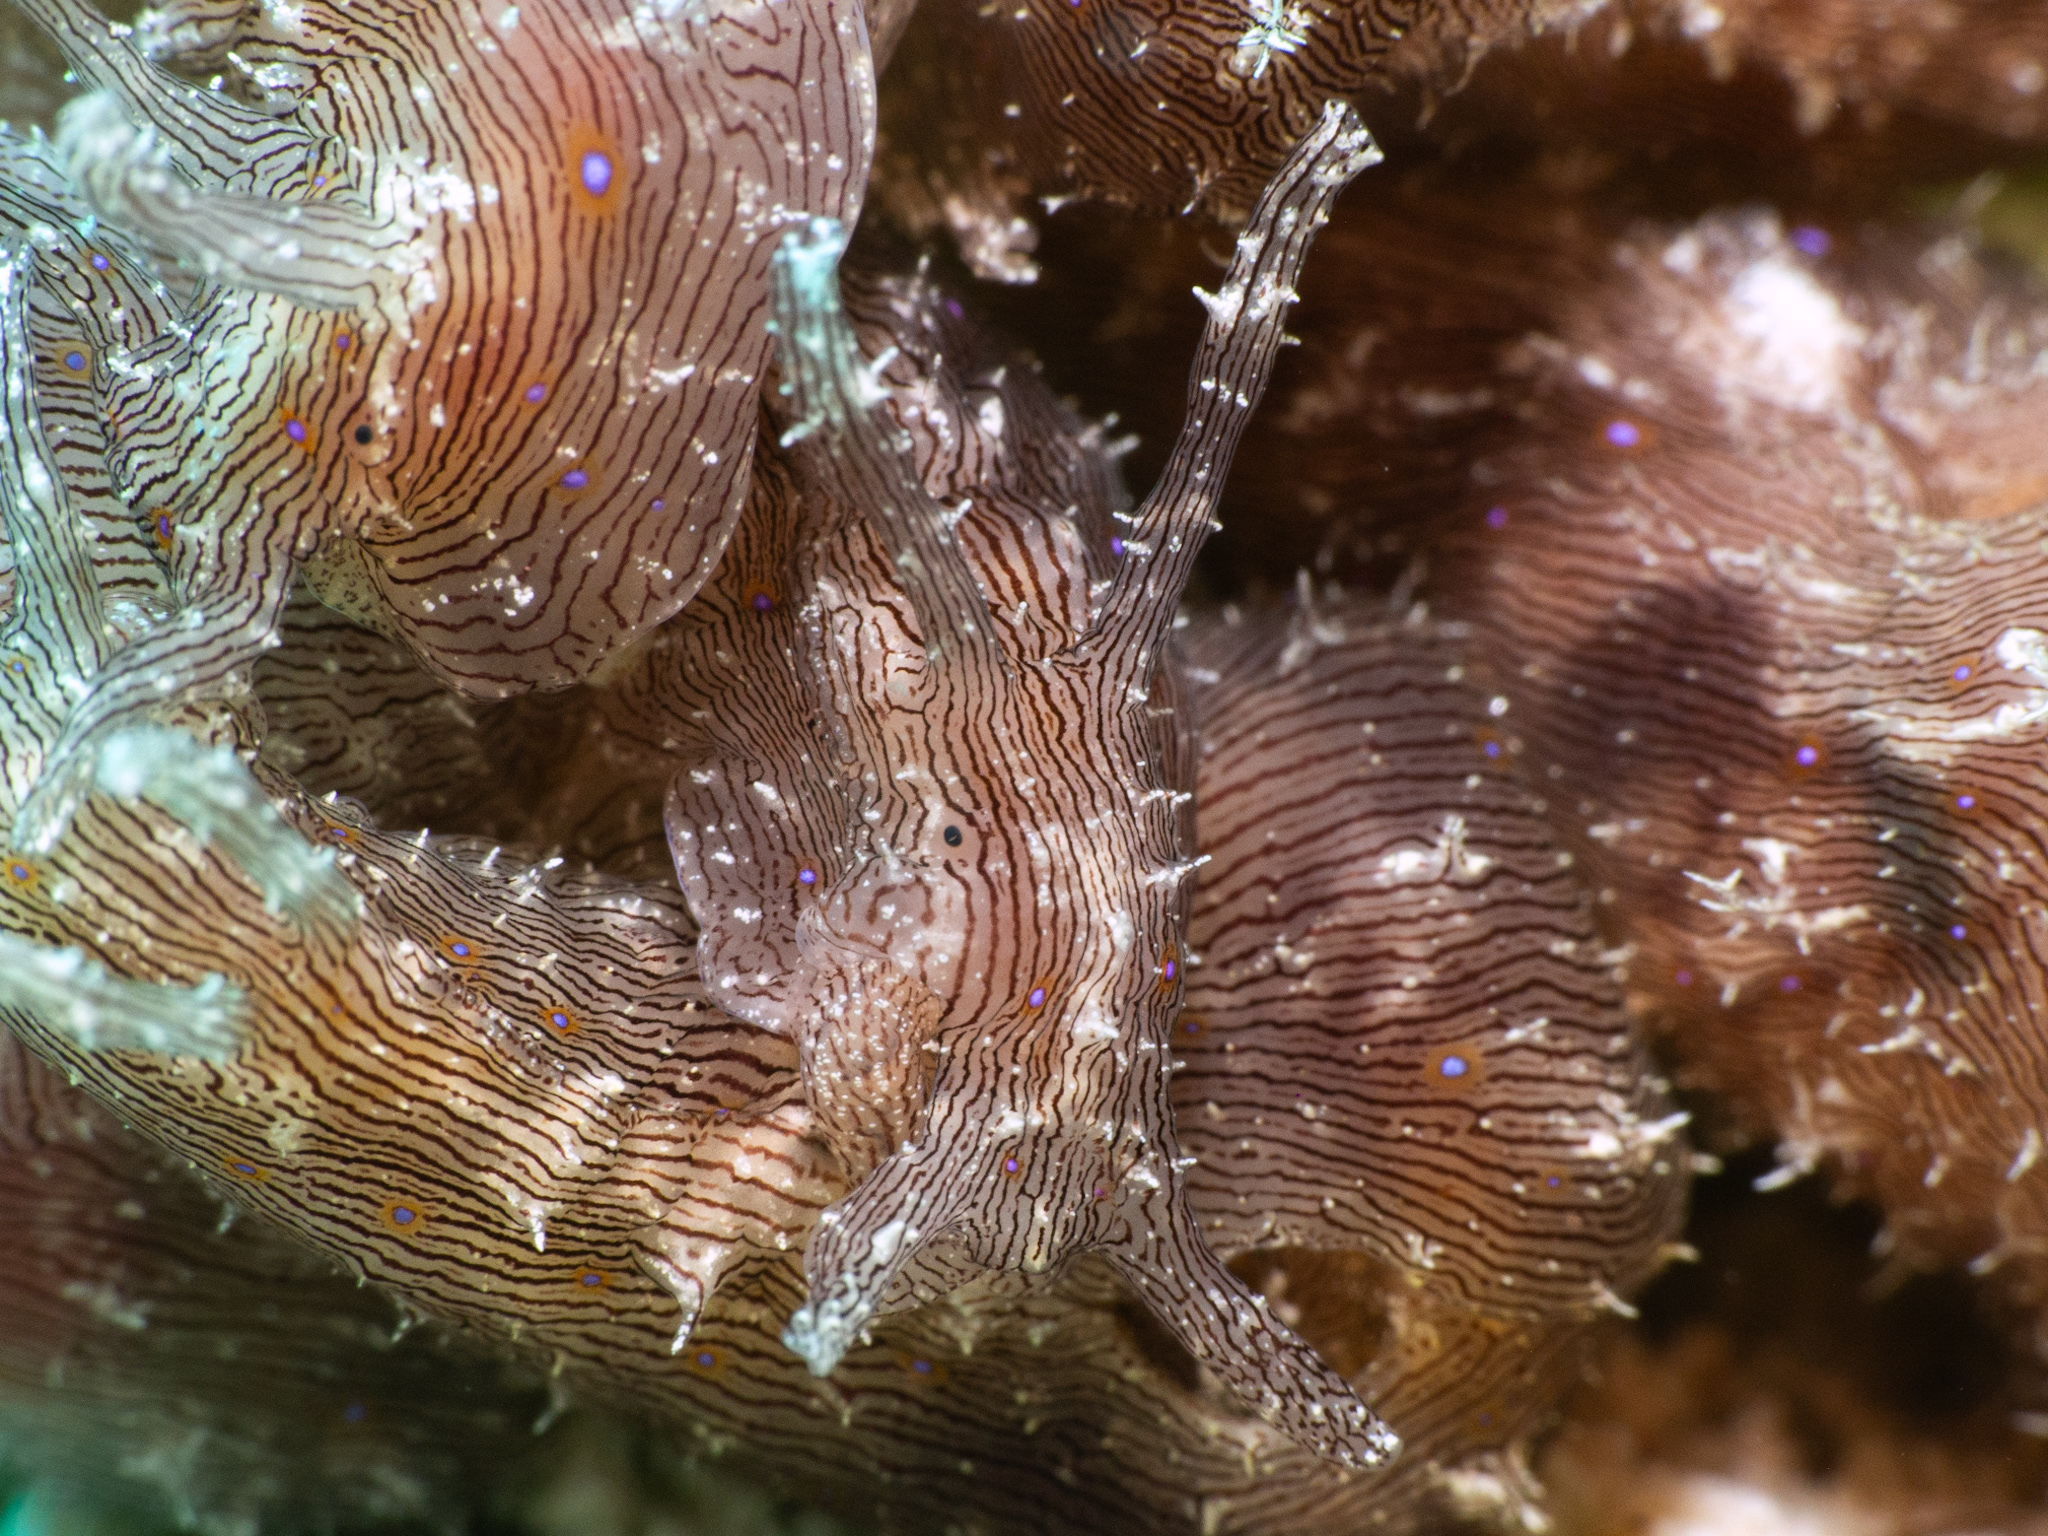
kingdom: Animalia
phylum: Mollusca
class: Gastropoda
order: Aplysiida
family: Aplysiidae
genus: Stylocheilus
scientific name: Stylocheilus polyomma
